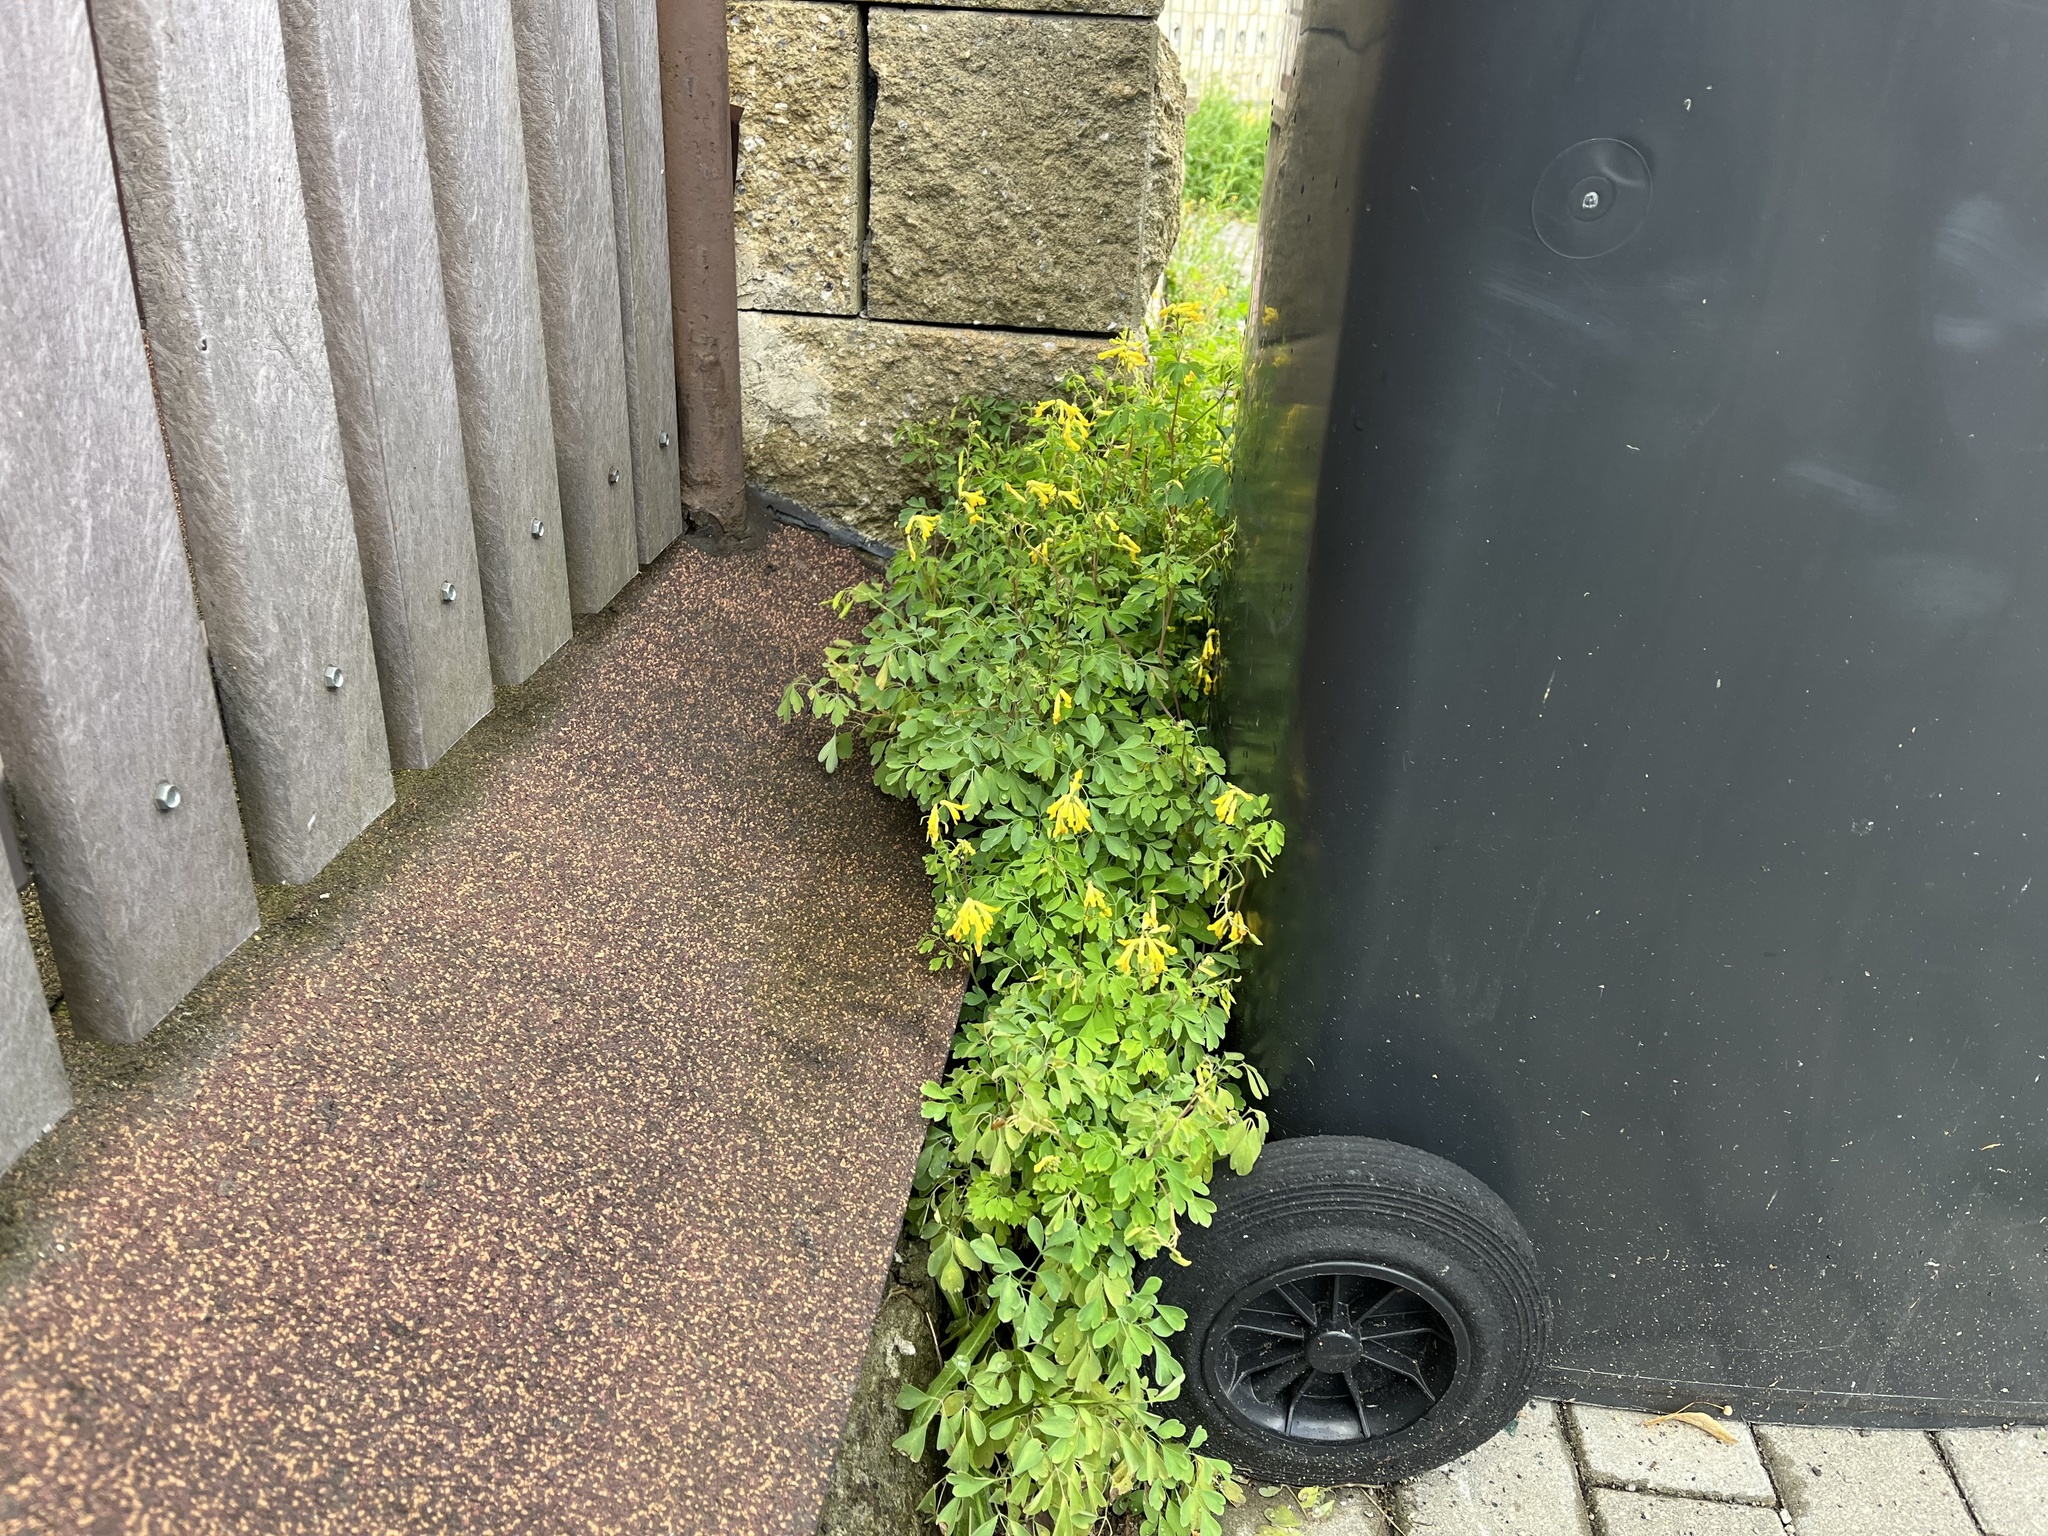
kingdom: Plantae
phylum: Tracheophyta
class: Magnoliopsida
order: Ranunculales
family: Papaveraceae
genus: Pseudofumaria
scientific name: Pseudofumaria lutea
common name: Yellow corydalis
